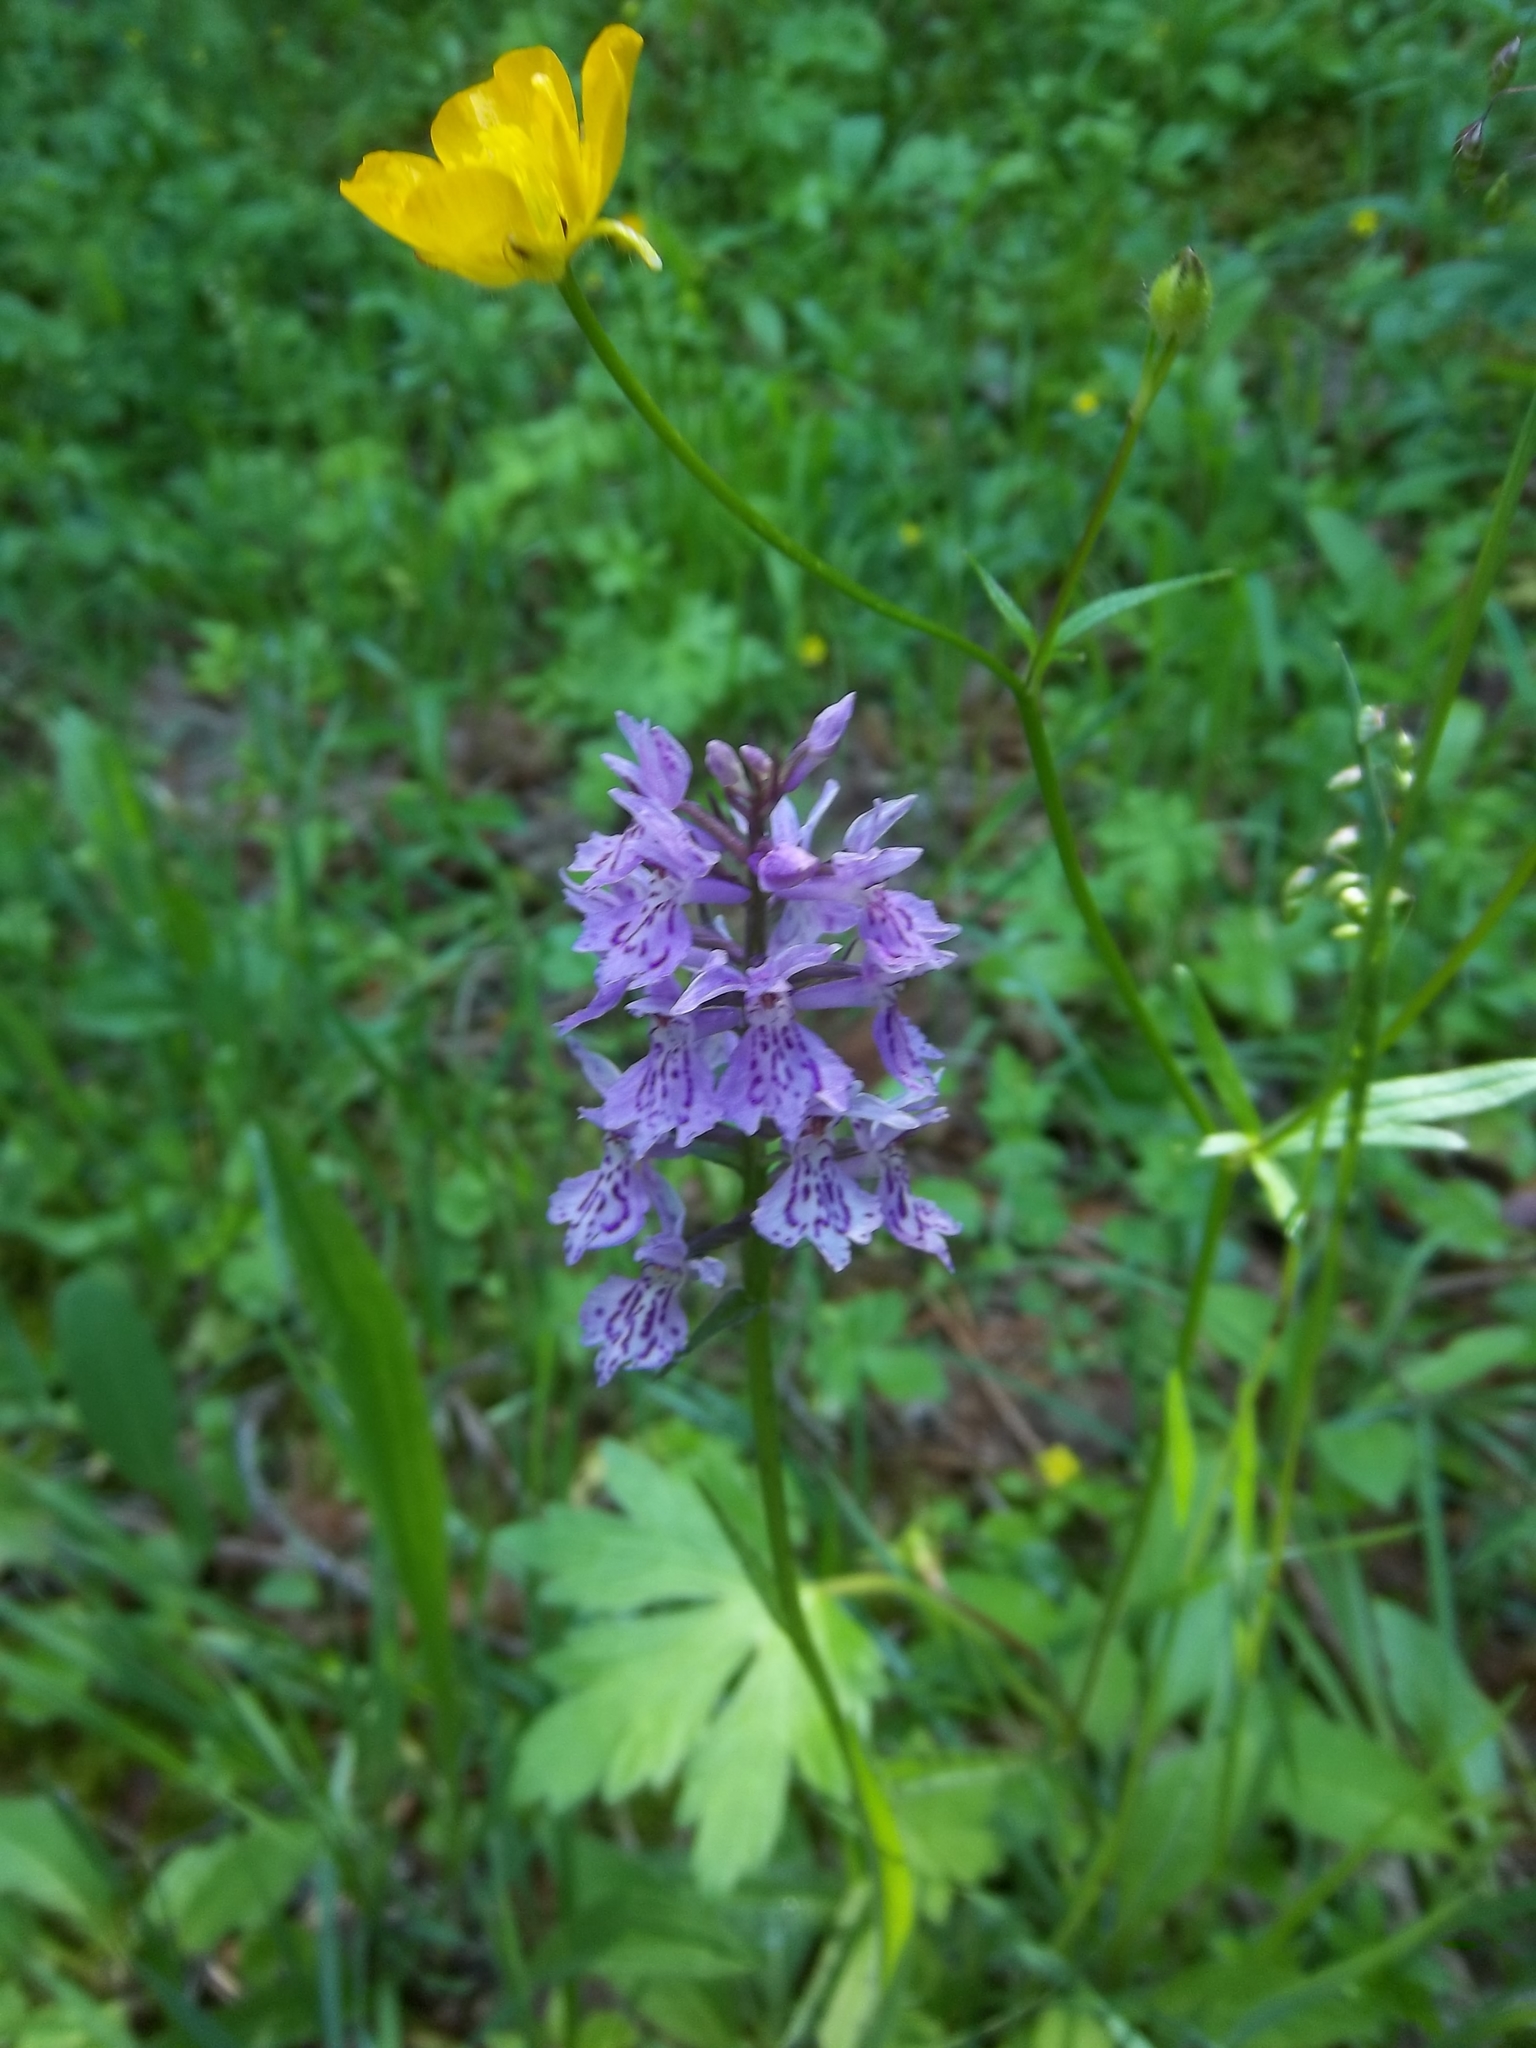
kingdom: Plantae
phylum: Tracheophyta
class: Liliopsida
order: Asparagales
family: Orchidaceae
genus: Dactylorhiza
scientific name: Dactylorhiza maculata
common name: Heath spotted-orchid
